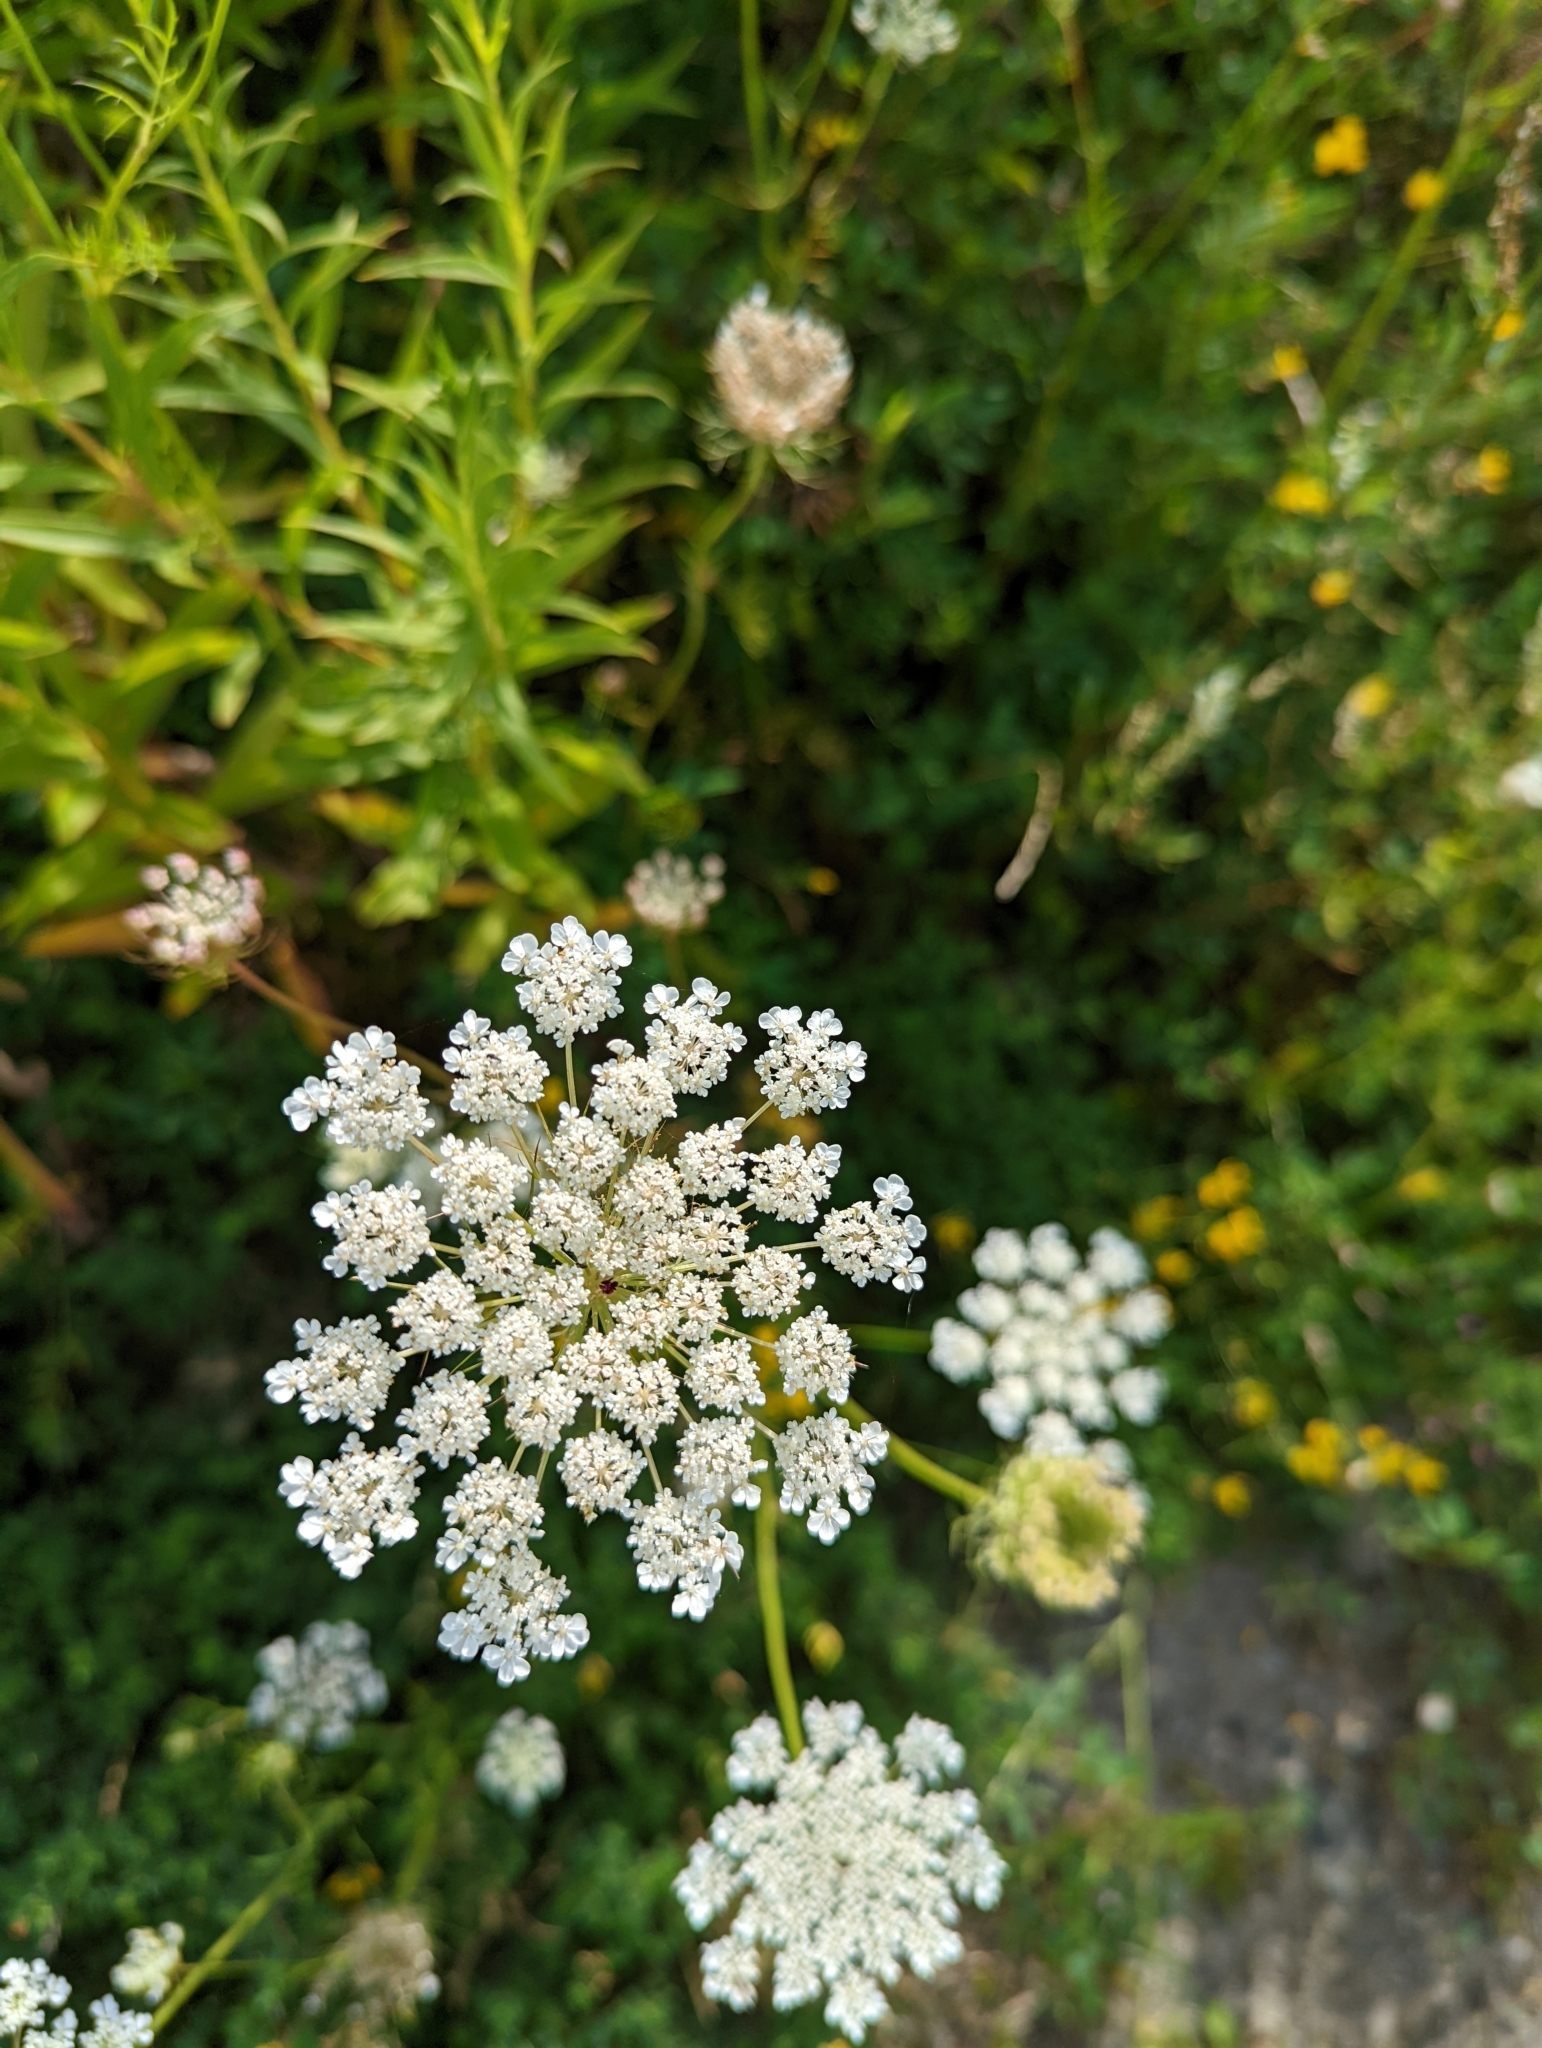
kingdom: Plantae
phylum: Tracheophyta
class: Magnoliopsida
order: Apiales
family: Apiaceae
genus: Daucus
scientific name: Daucus carota
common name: Wild carrot
